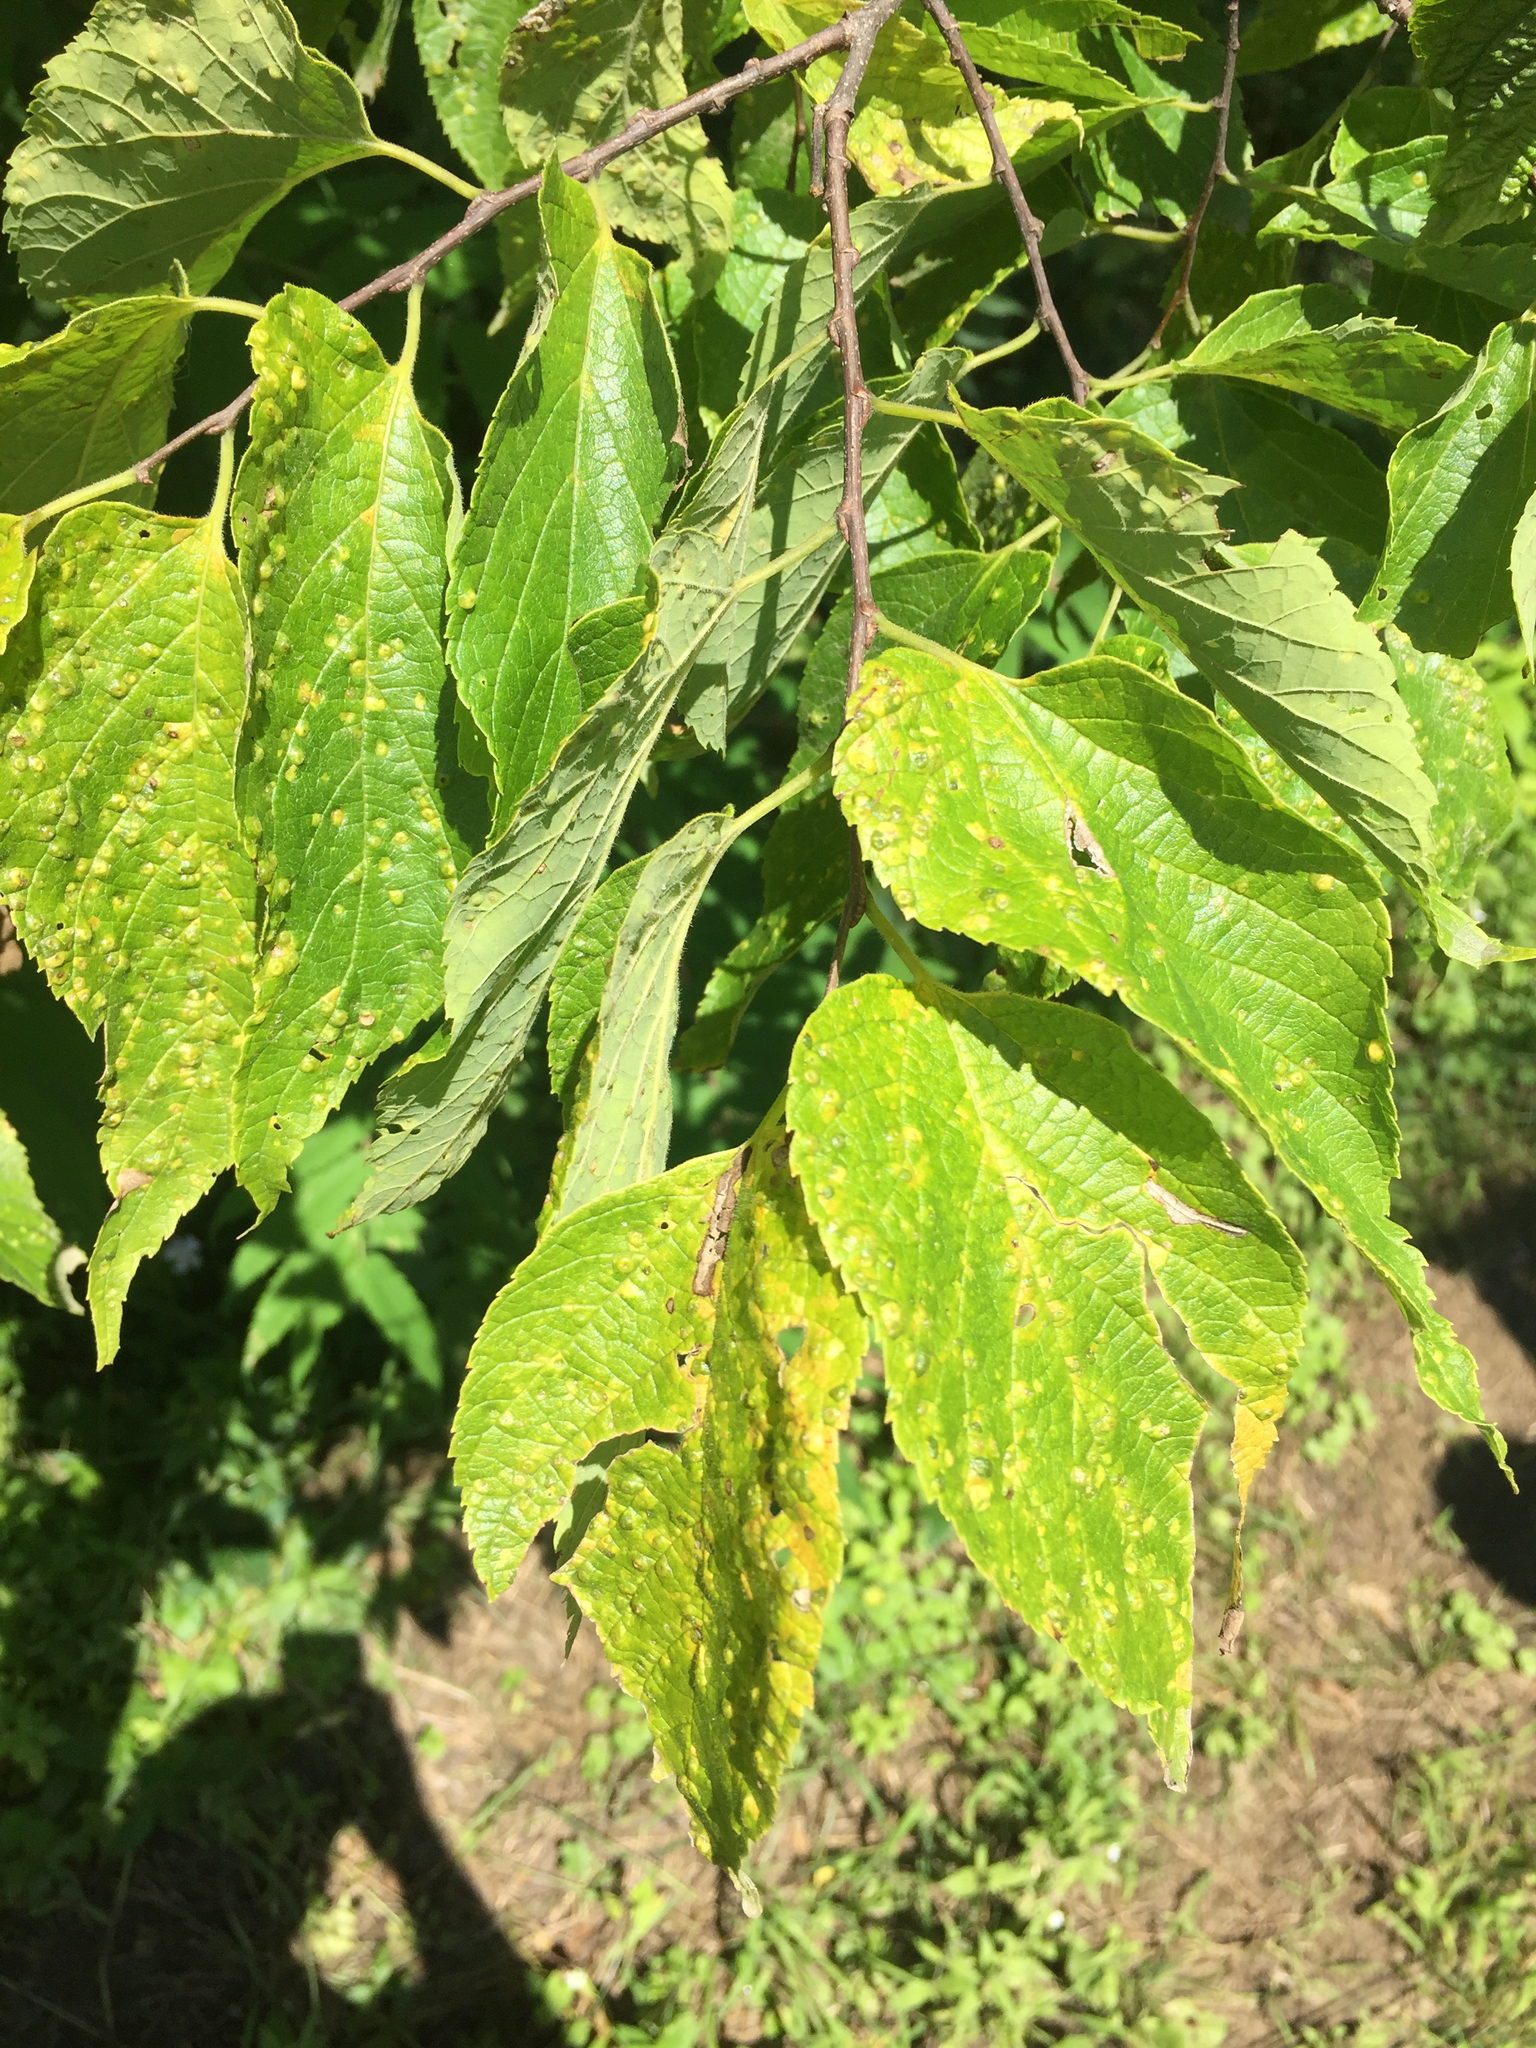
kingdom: Plantae
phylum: Tracheophyta
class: Magnoliopsida
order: Rosales
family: Cannabaceae
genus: Celtis
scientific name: Celtis occidentalis
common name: Common hackberry
